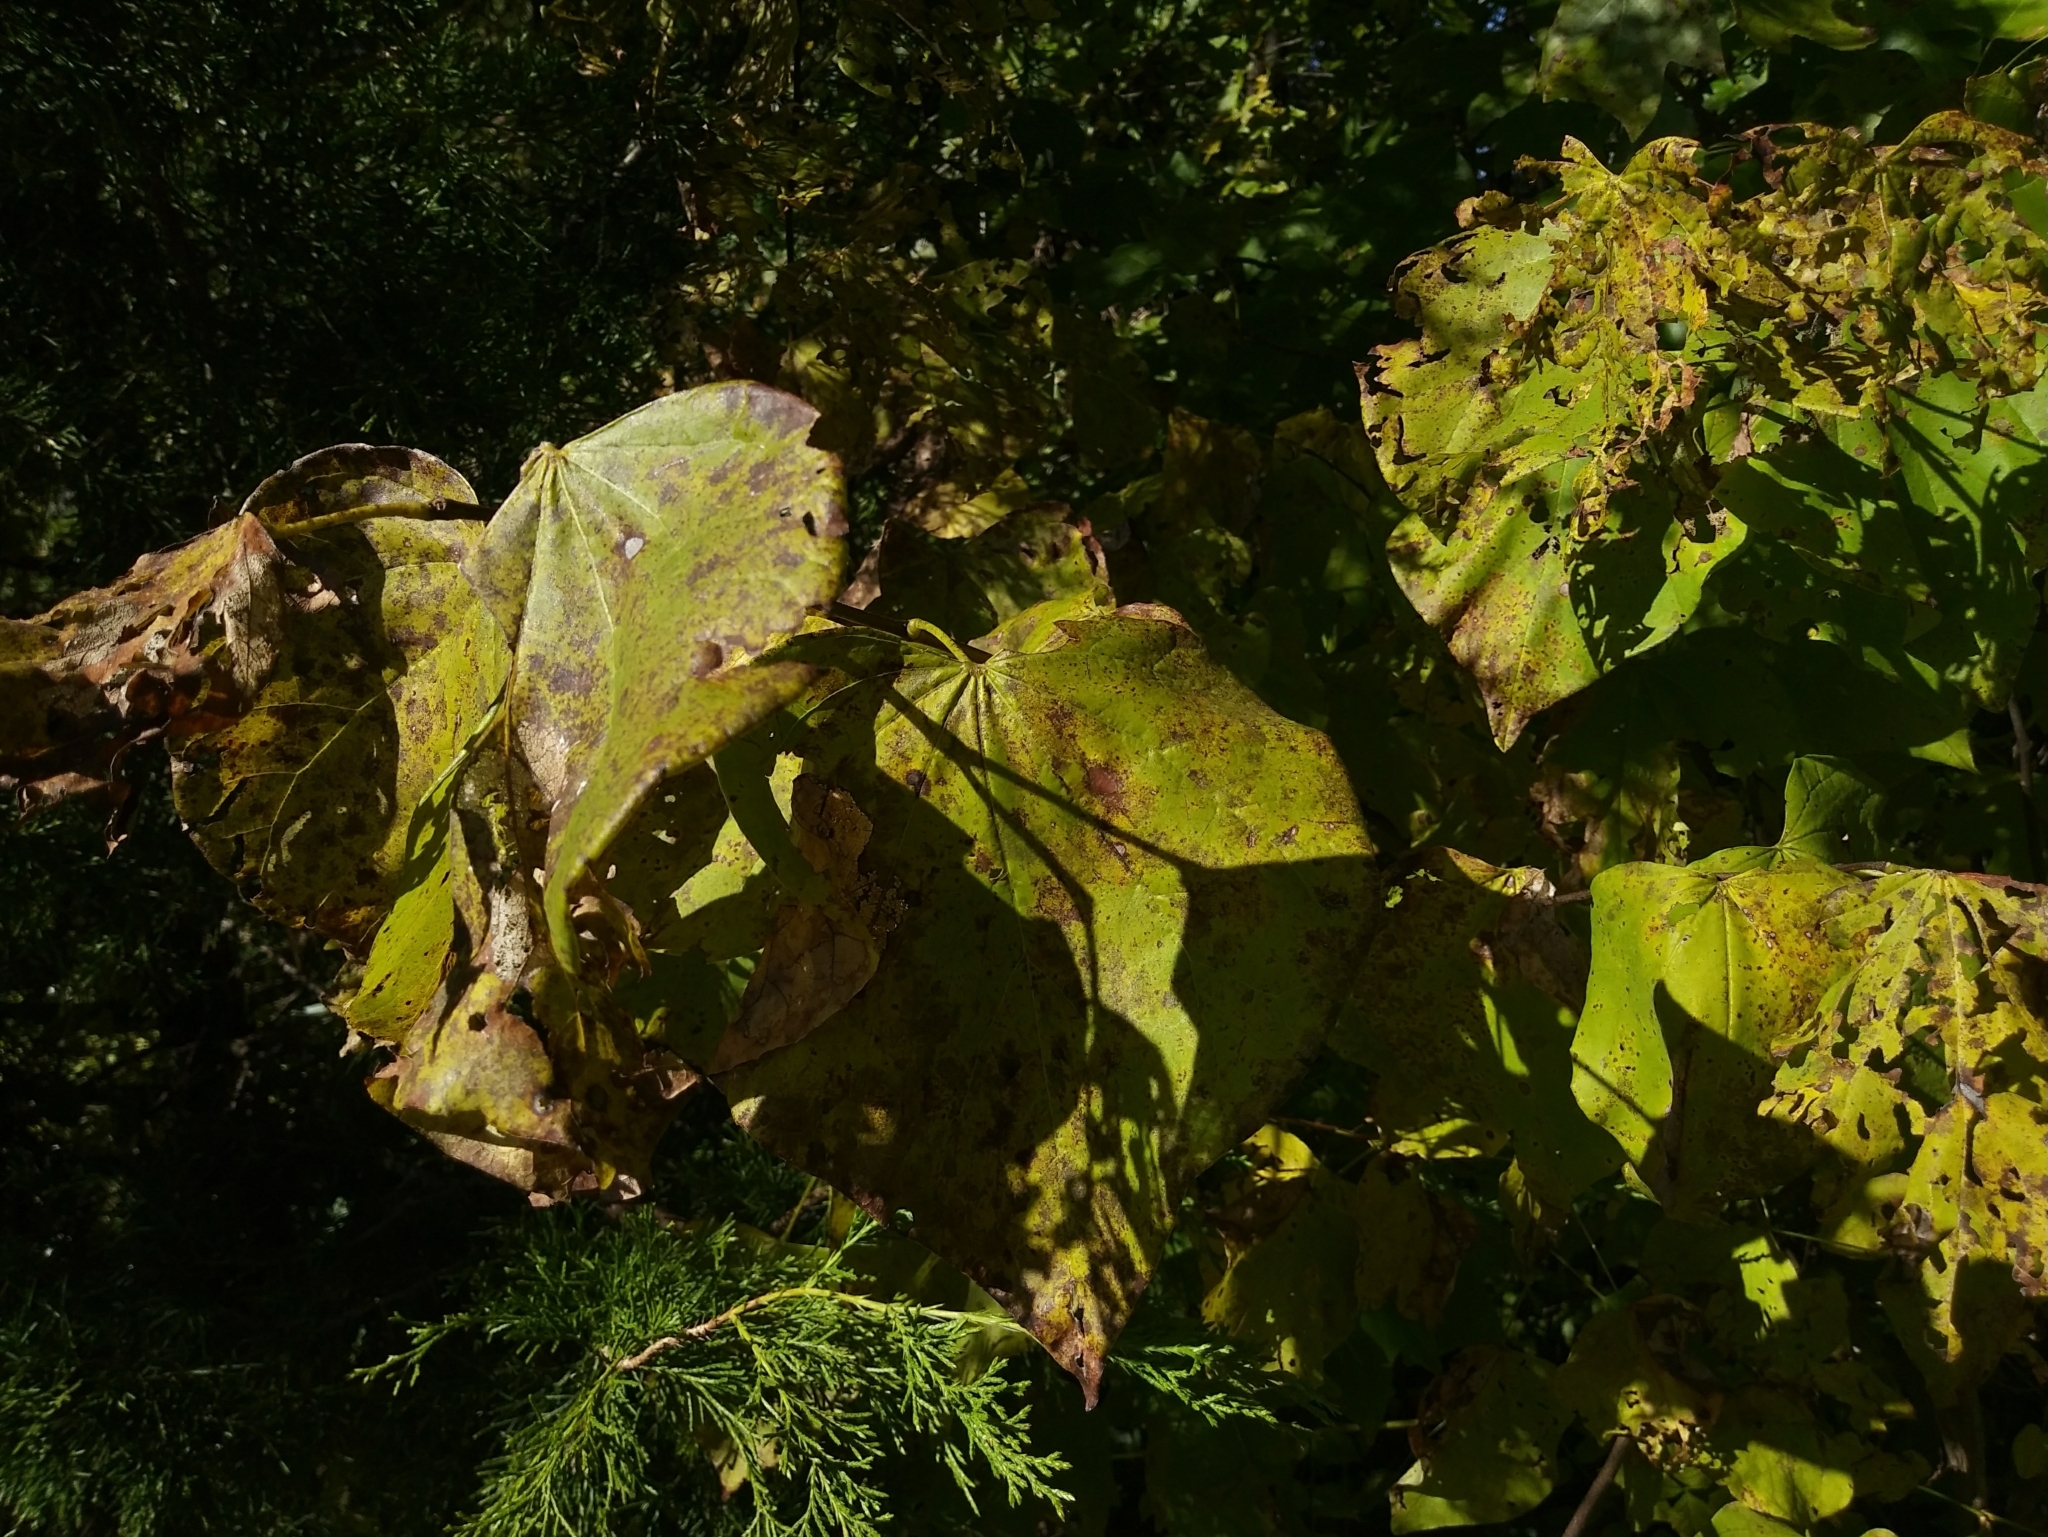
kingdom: Plantae
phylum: Tracheophyta
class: Magnoliopsida
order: Fabales
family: Fabaceae
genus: Cercis
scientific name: Cercis canadensis
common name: Eastern redbud
